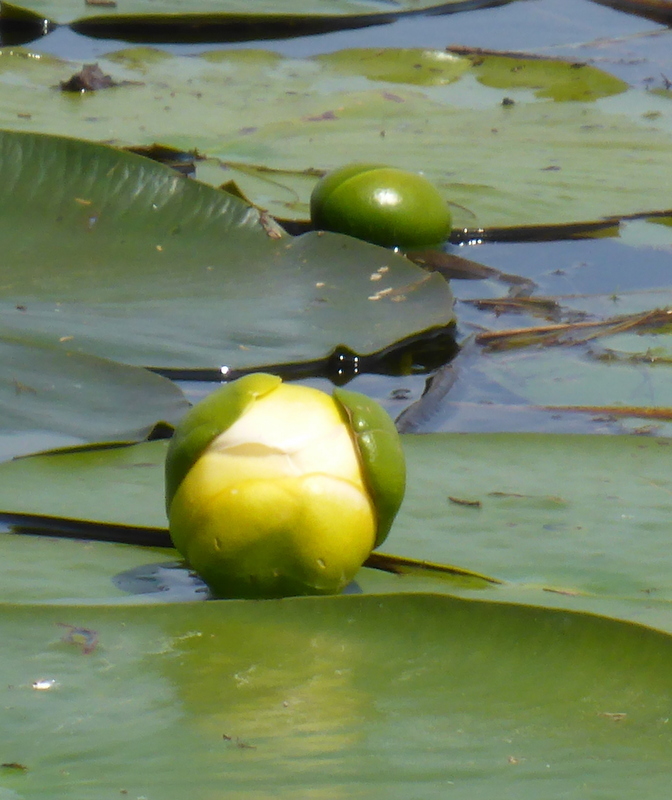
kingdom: Plantae
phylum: Tracheophyta
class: Magnoliopsida
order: Nymphaeales
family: Nymphaeaceae
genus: Nuphar
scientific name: Nuphar advena
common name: Spatter-dock
